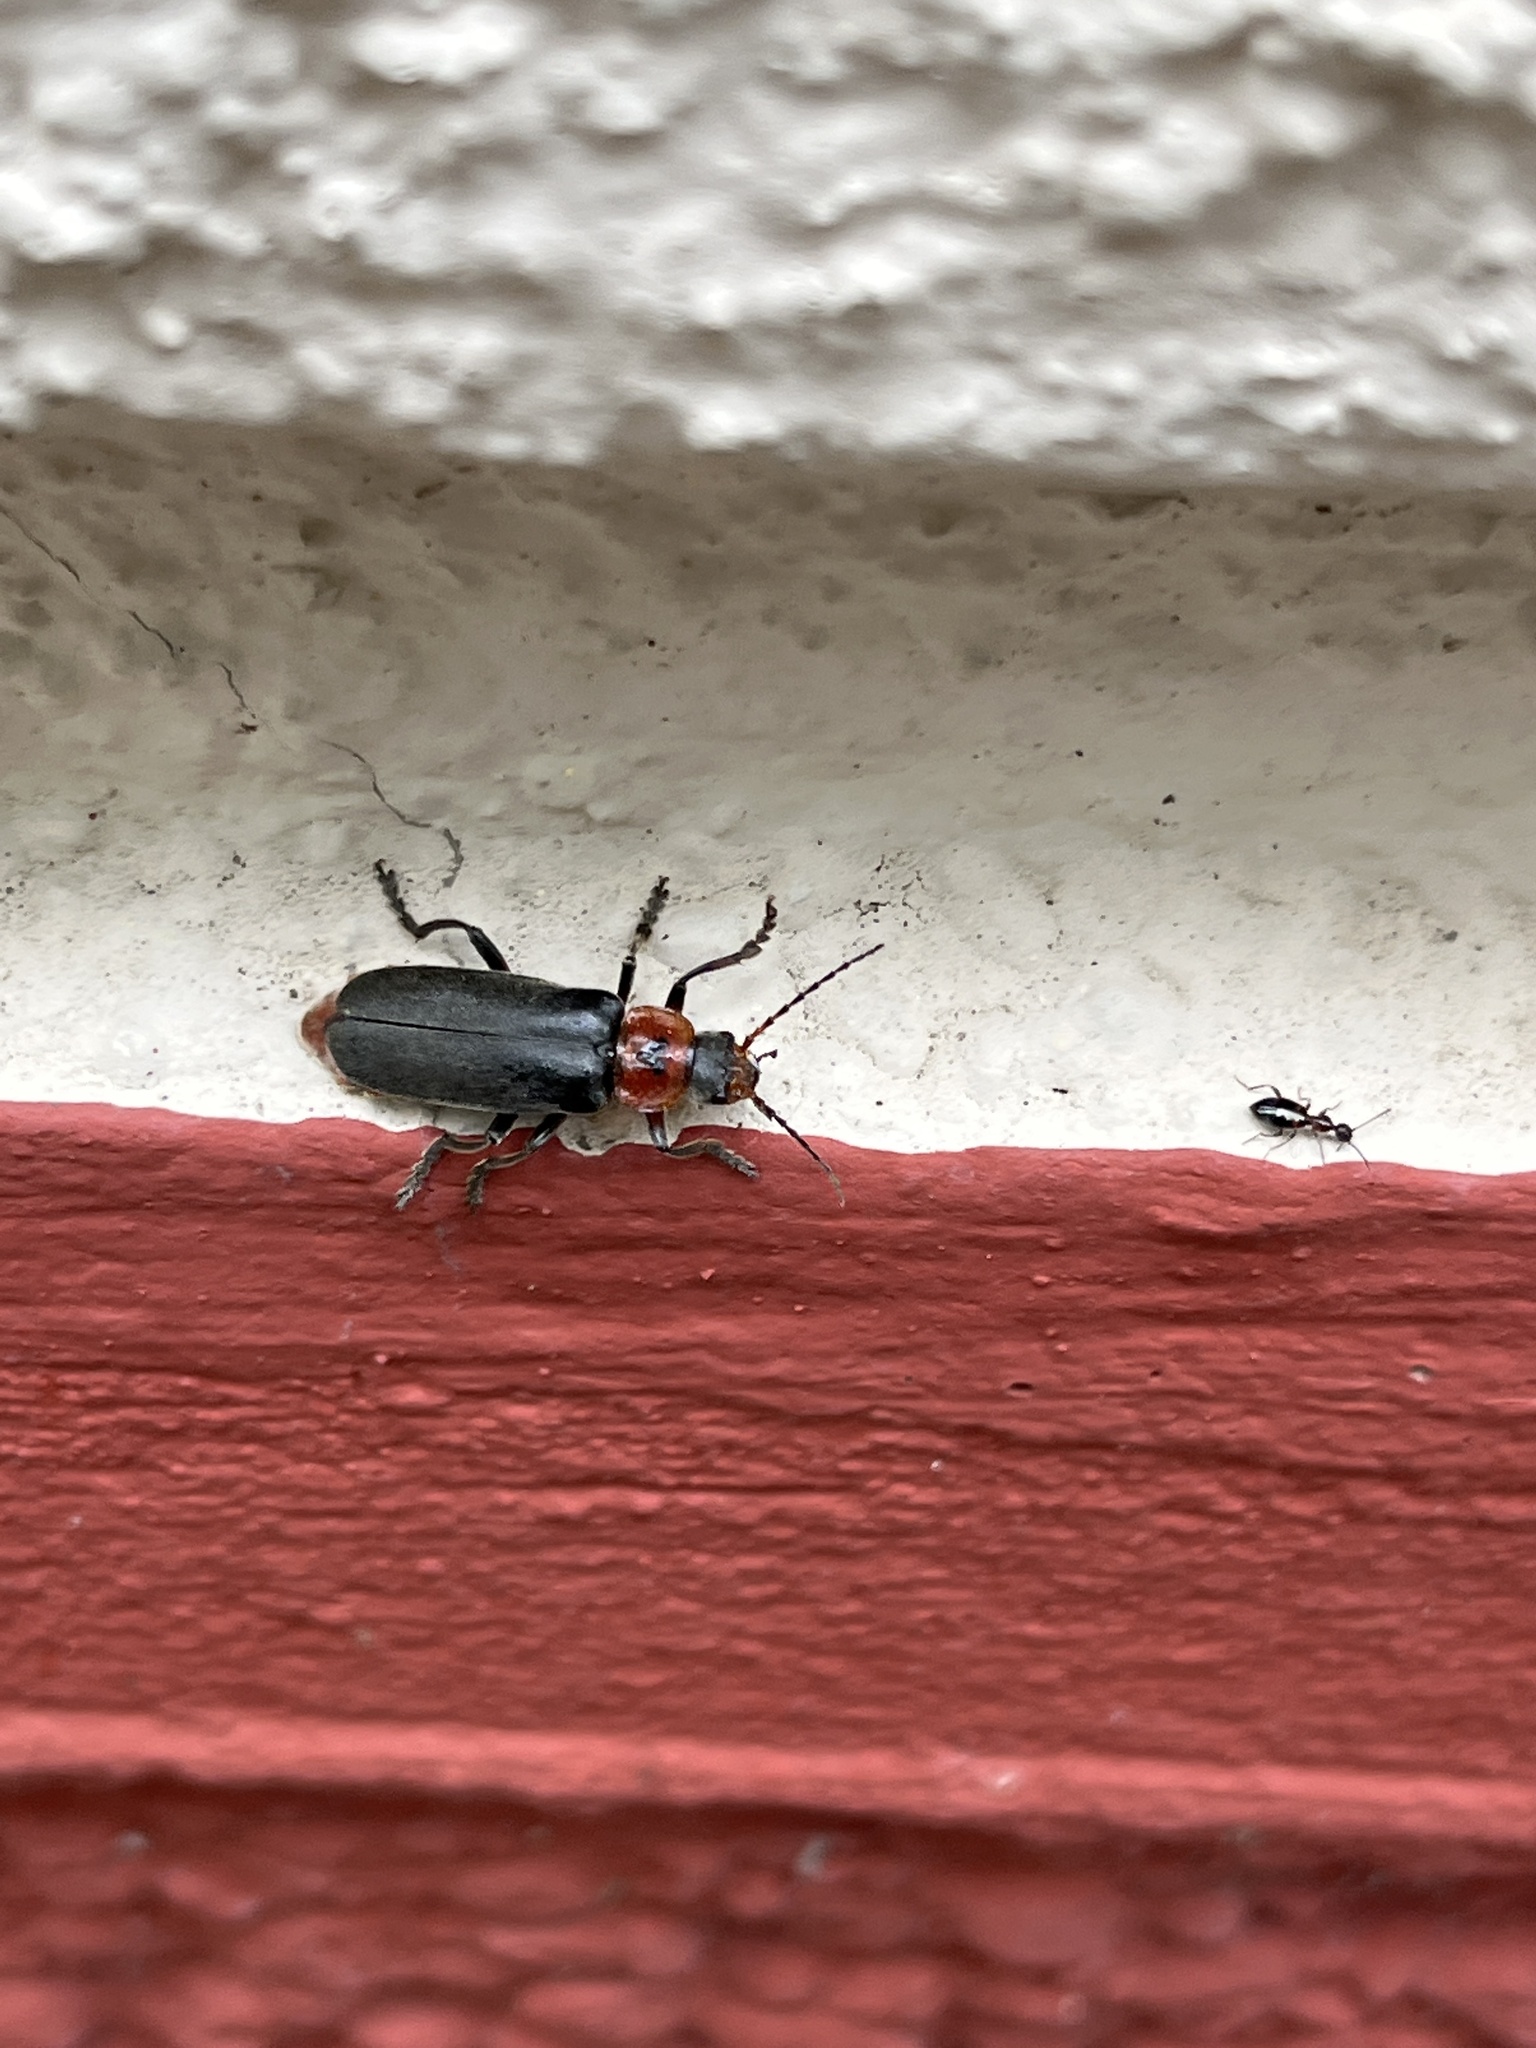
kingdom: Animalia
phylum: Arthropoda
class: Insecta
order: Coleoptera
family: Cantharidae
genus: Cantharis
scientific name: Cantharis rustica
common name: Soldier beetle
